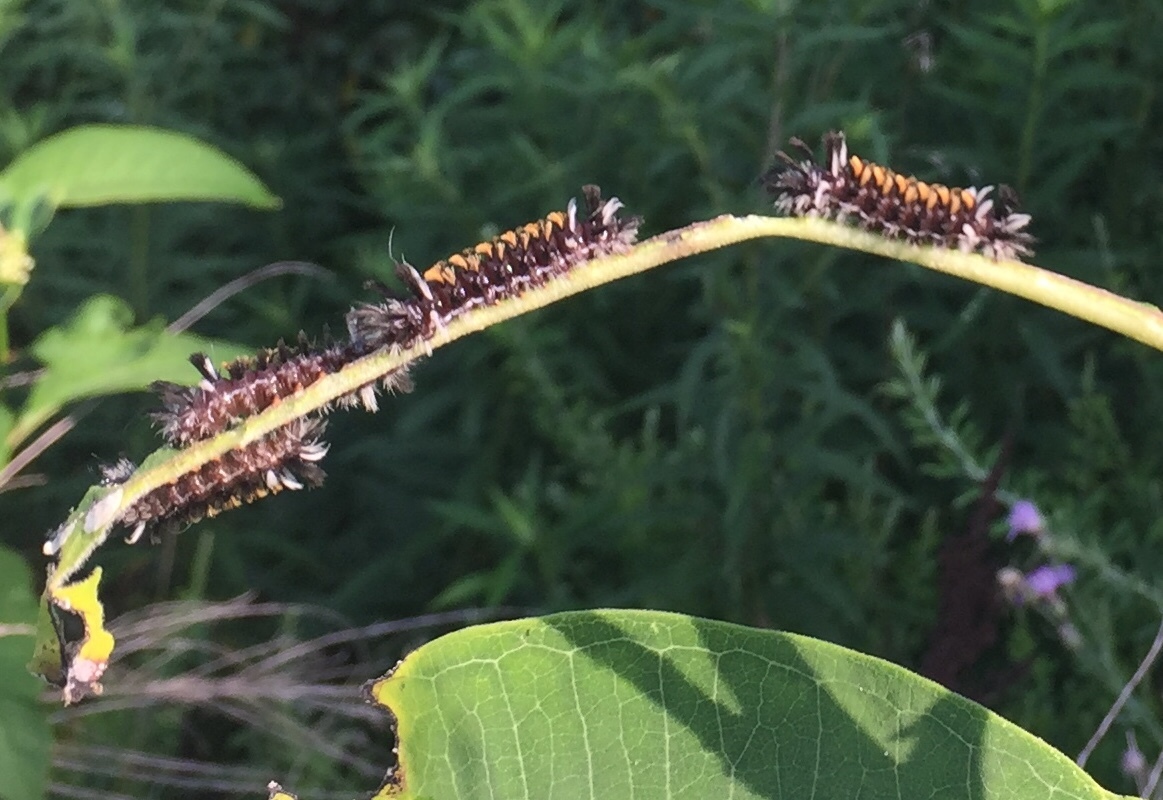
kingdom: Animalia
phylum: Arthropoda
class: Insecta
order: Lepidoptera
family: Erebidae
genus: Euchaetes
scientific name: Euchaetes egle
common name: Milkweed tussock moth
